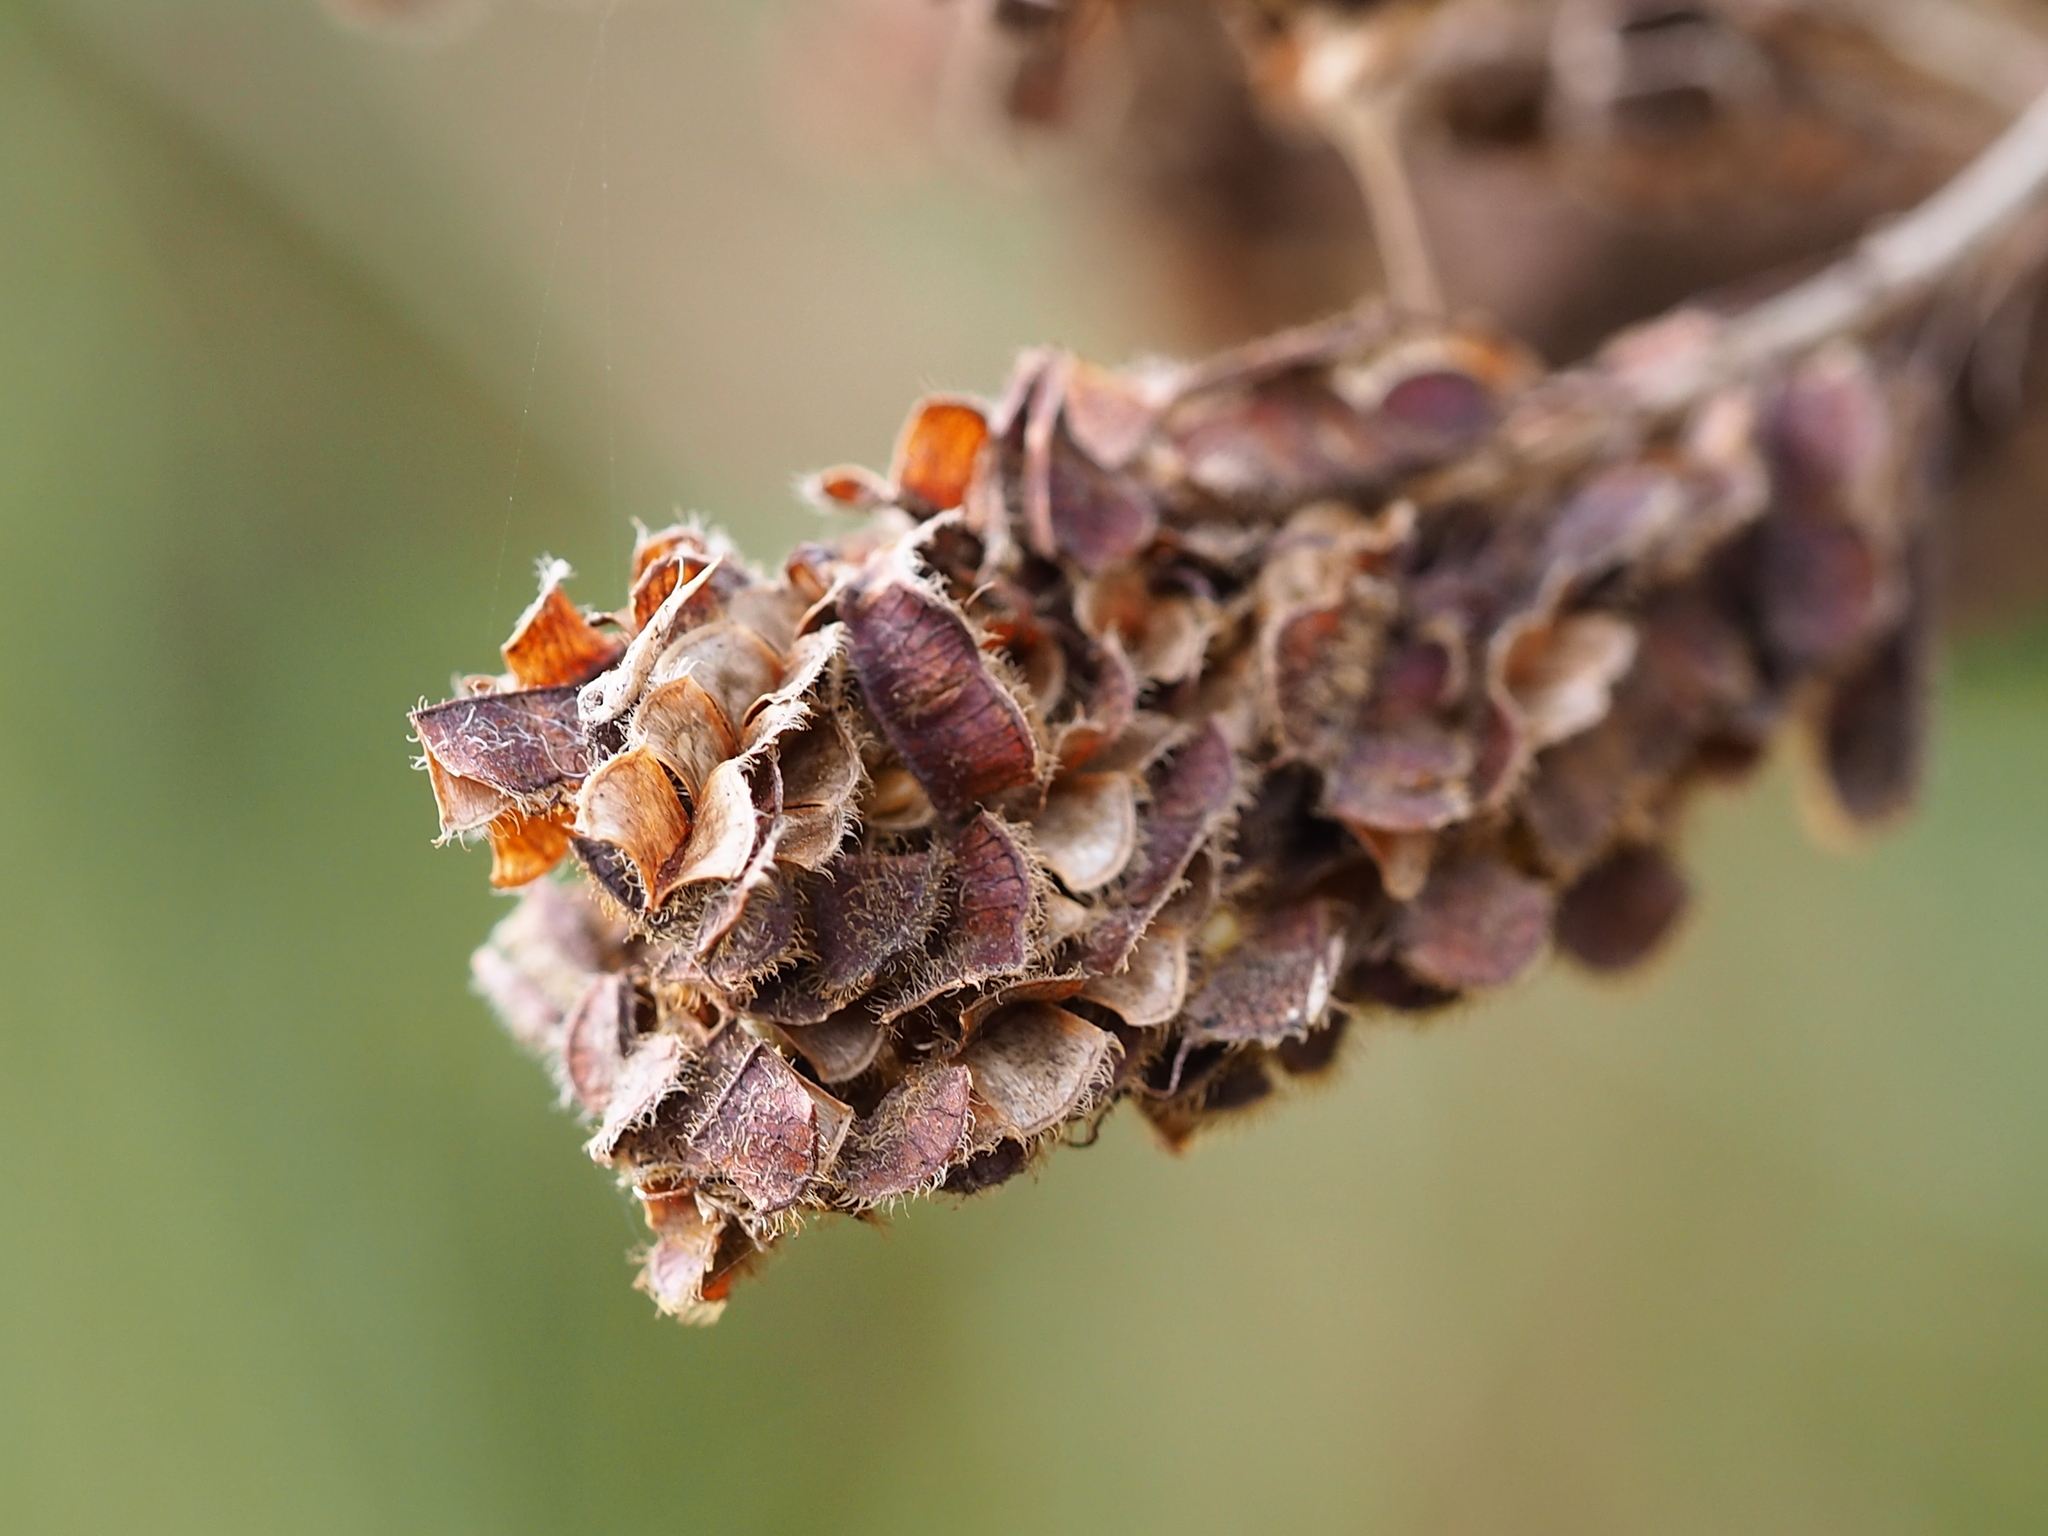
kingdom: Plantae
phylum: Tracheophyta
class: Magnoliopsida
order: Fabales
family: Fabaceae
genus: Grona
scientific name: Grona heterocarpos
